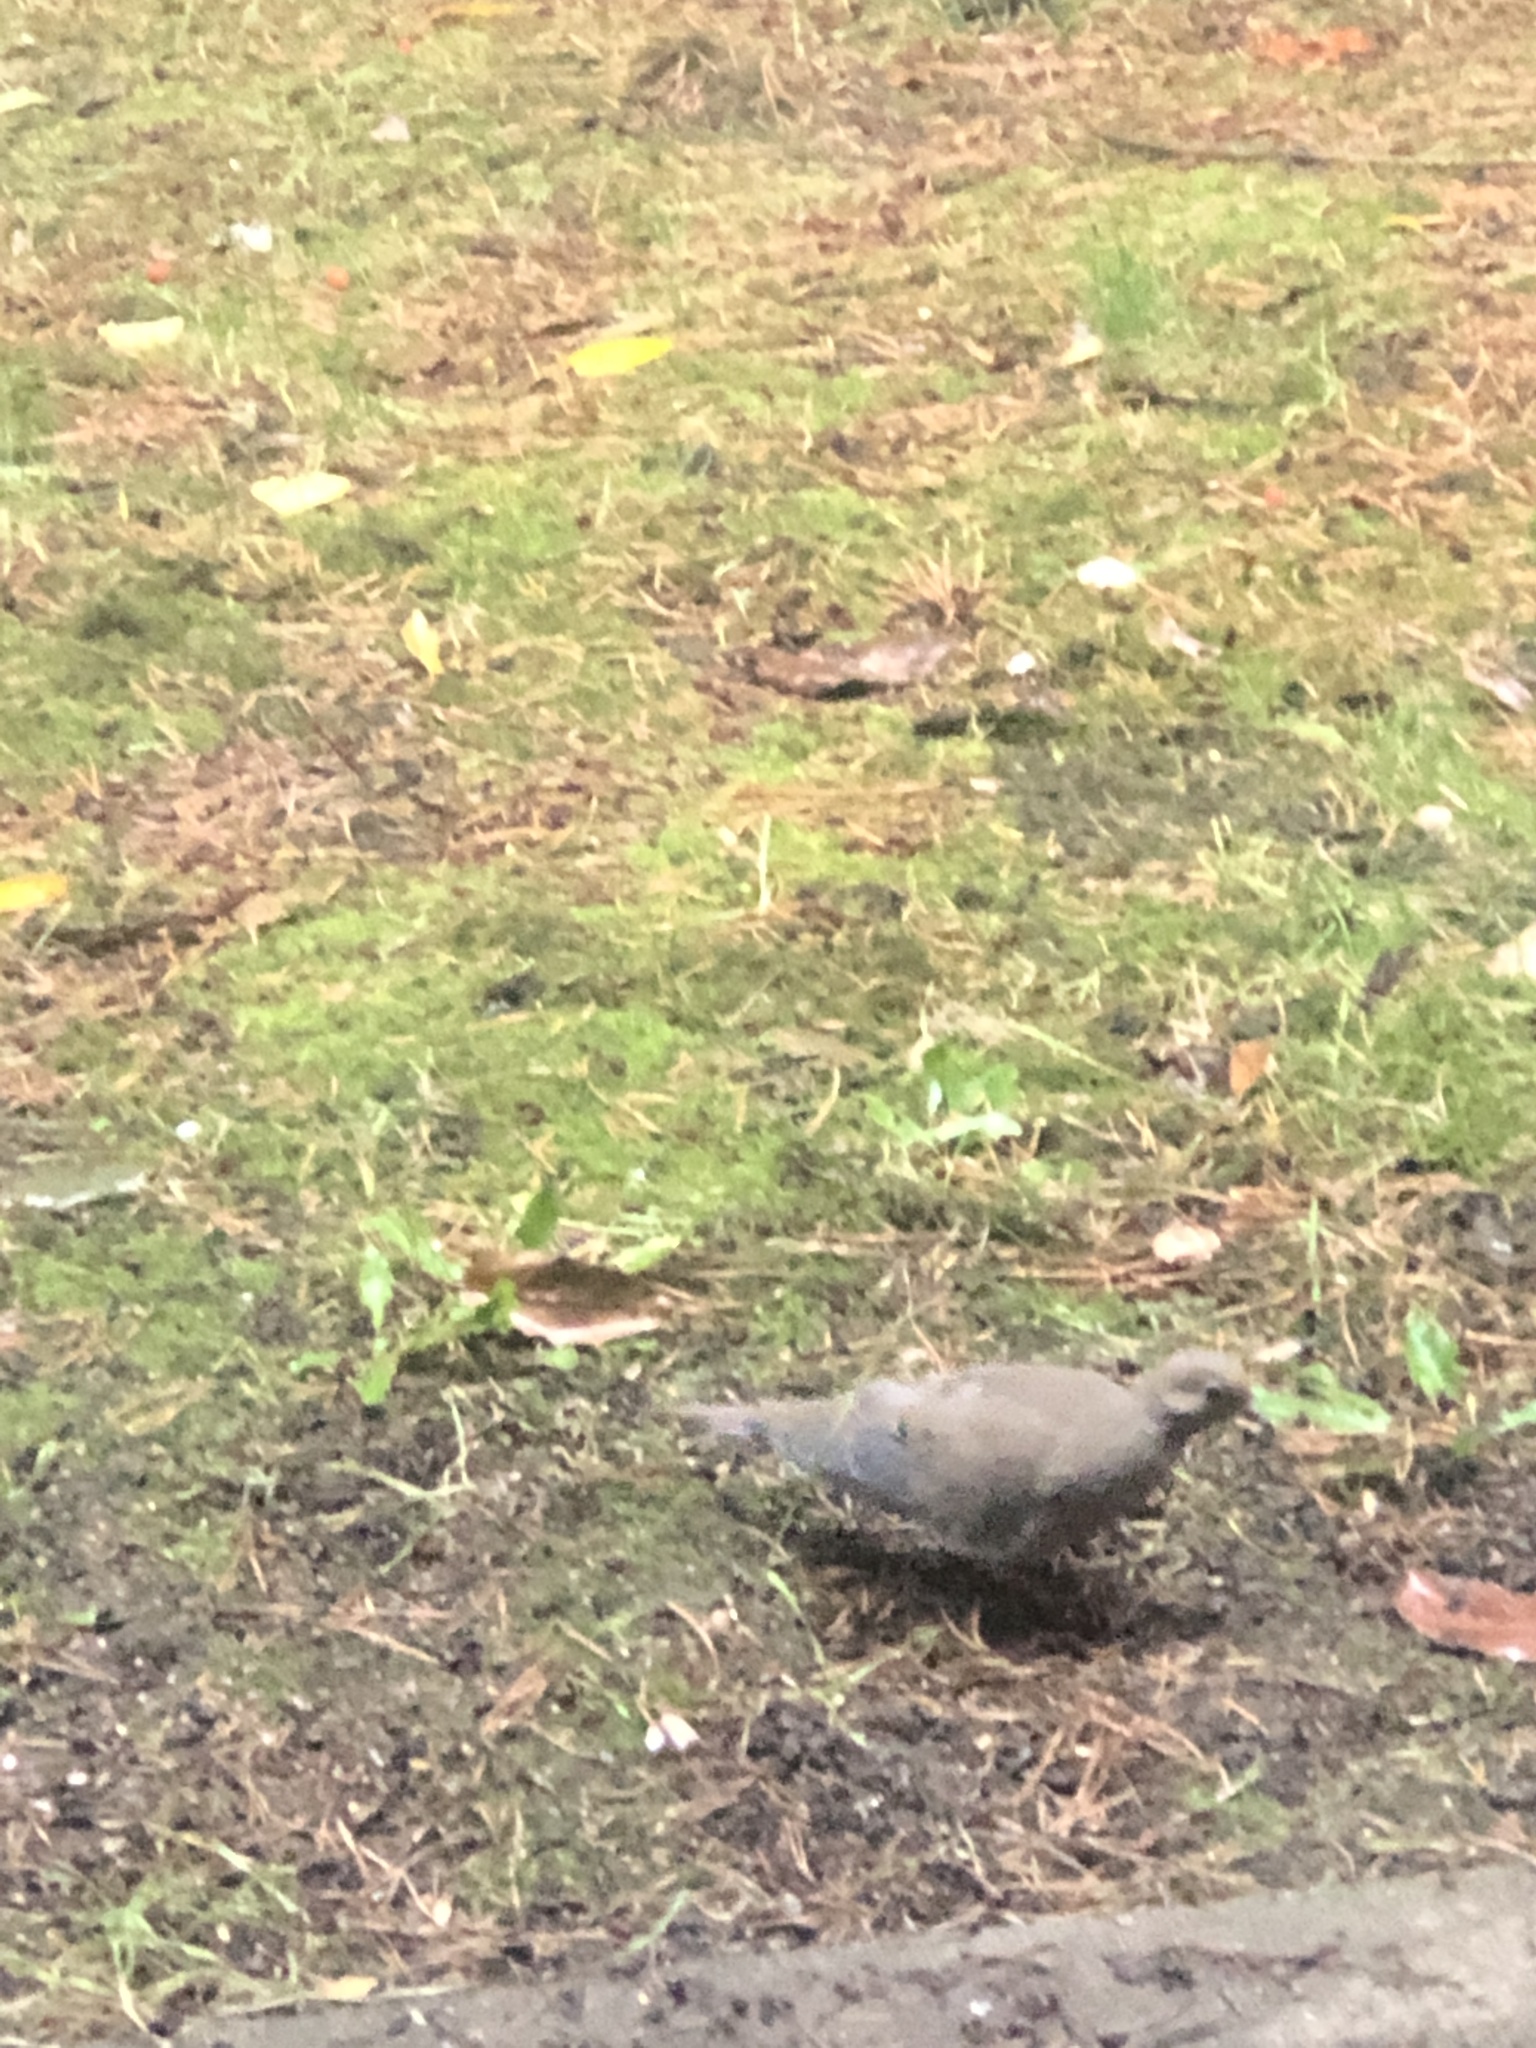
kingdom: Animalia
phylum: Chordata
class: Aves
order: Columbiformes
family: Columbidae
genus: Zenaida
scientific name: Zenaida macroura
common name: Mourning dove
